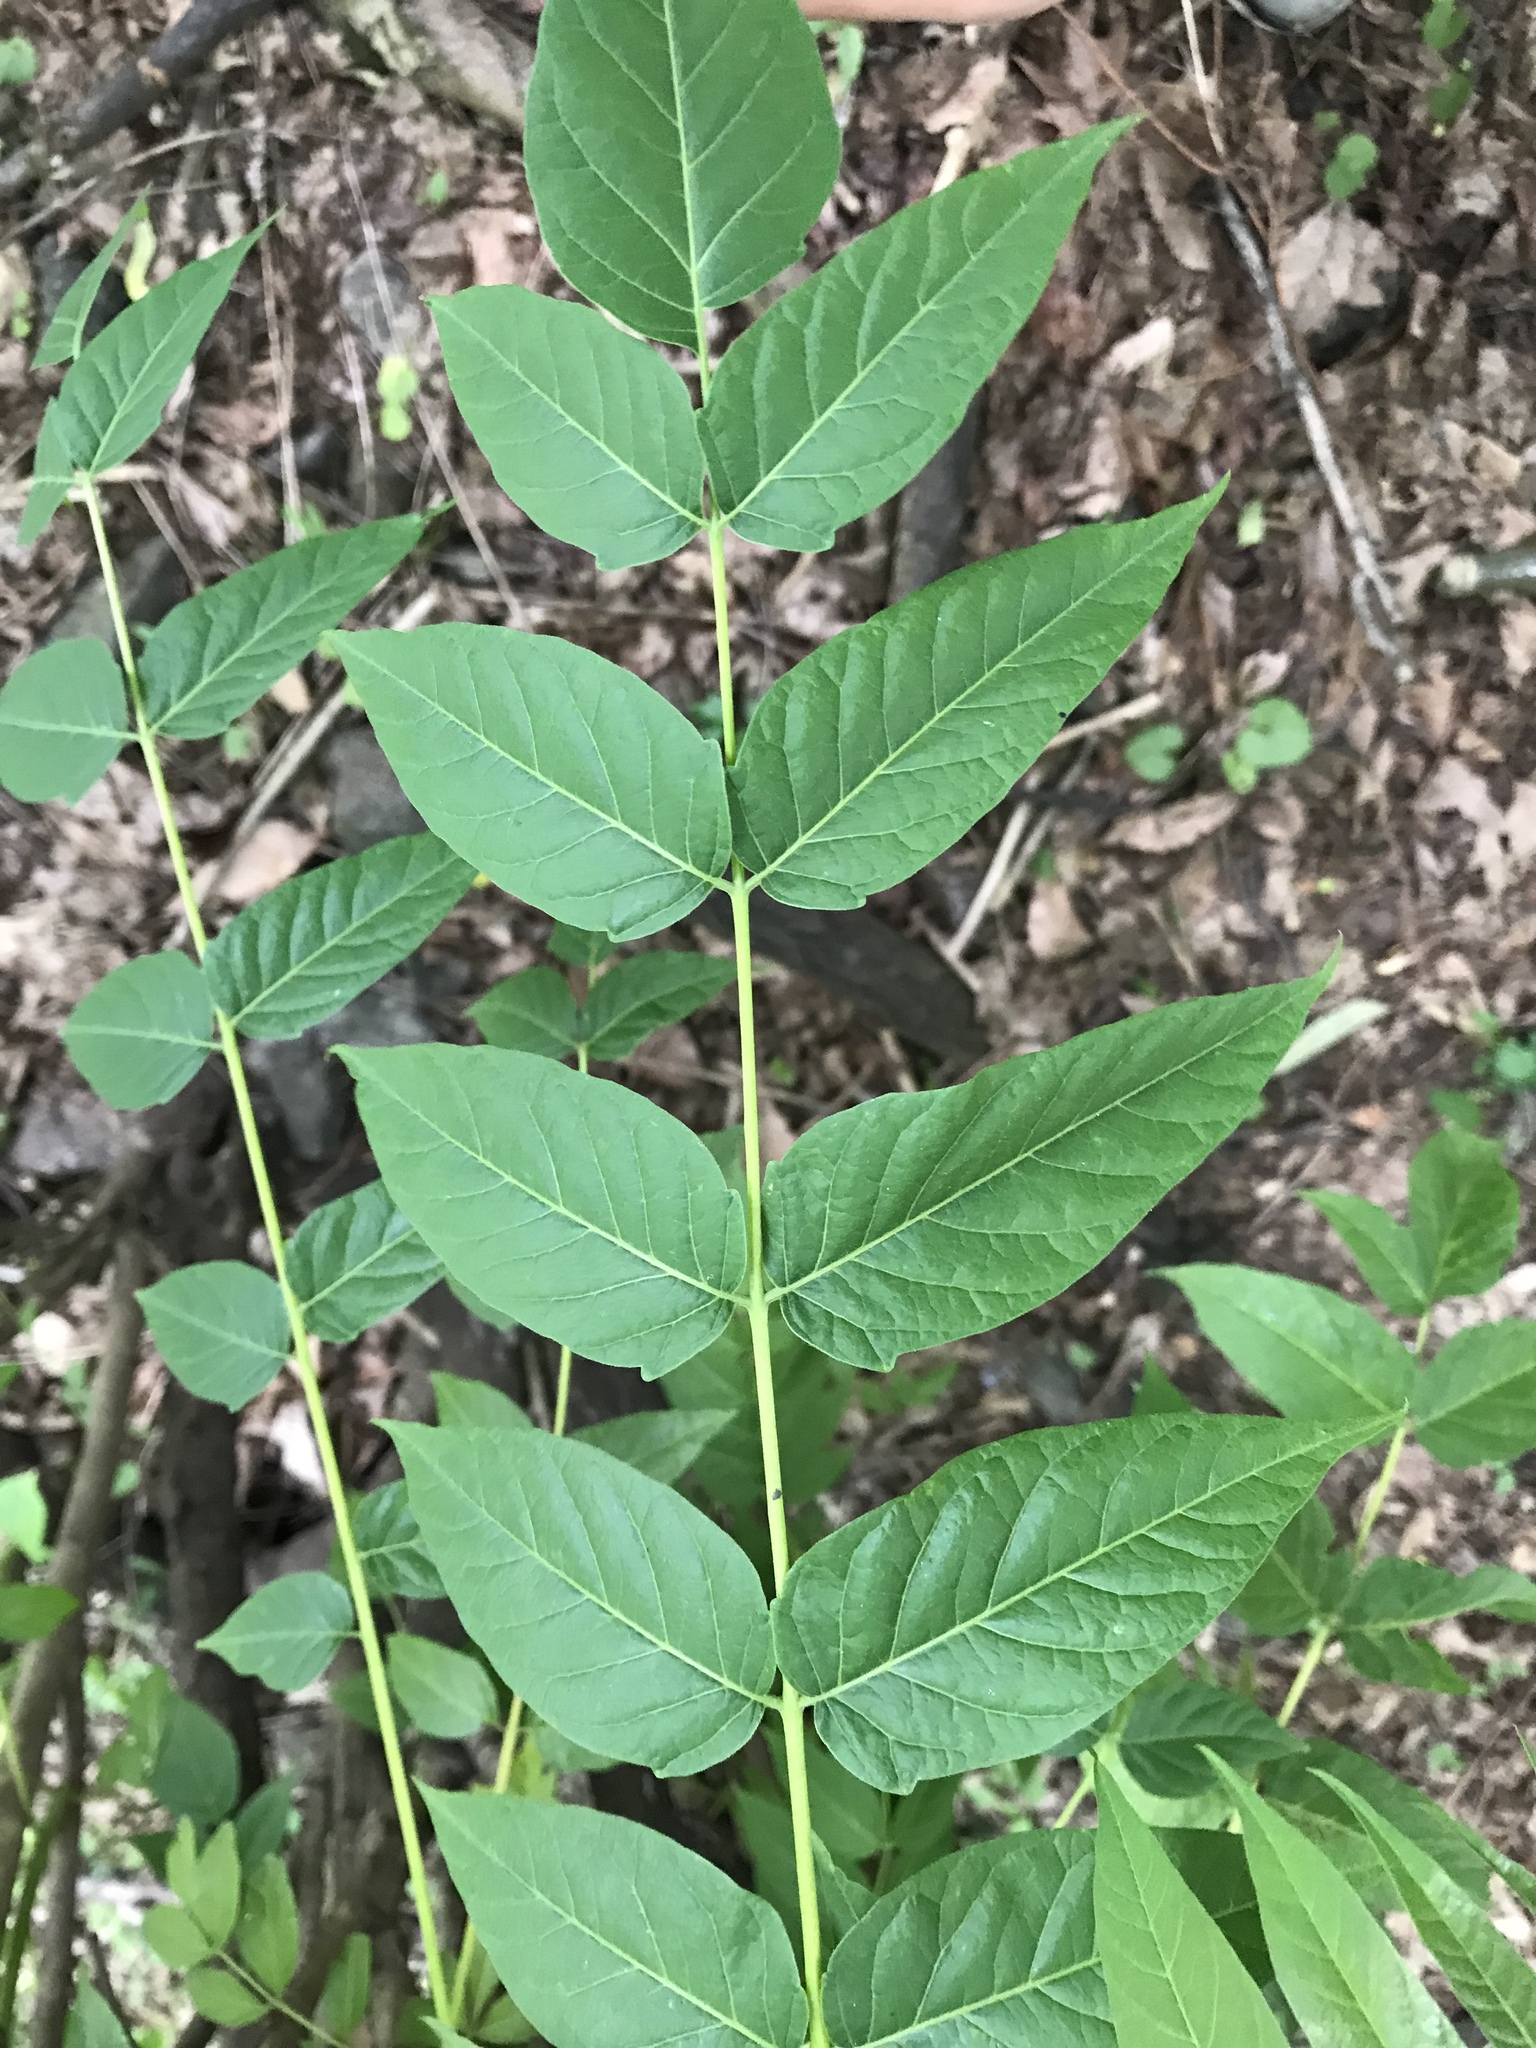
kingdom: Plantae
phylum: Tracheophyta
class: Magnoliopsida
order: Sapindales
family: Simaroubaceae
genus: Ailanthus
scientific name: Ailanthus altissima
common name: Tree-of-heaven
